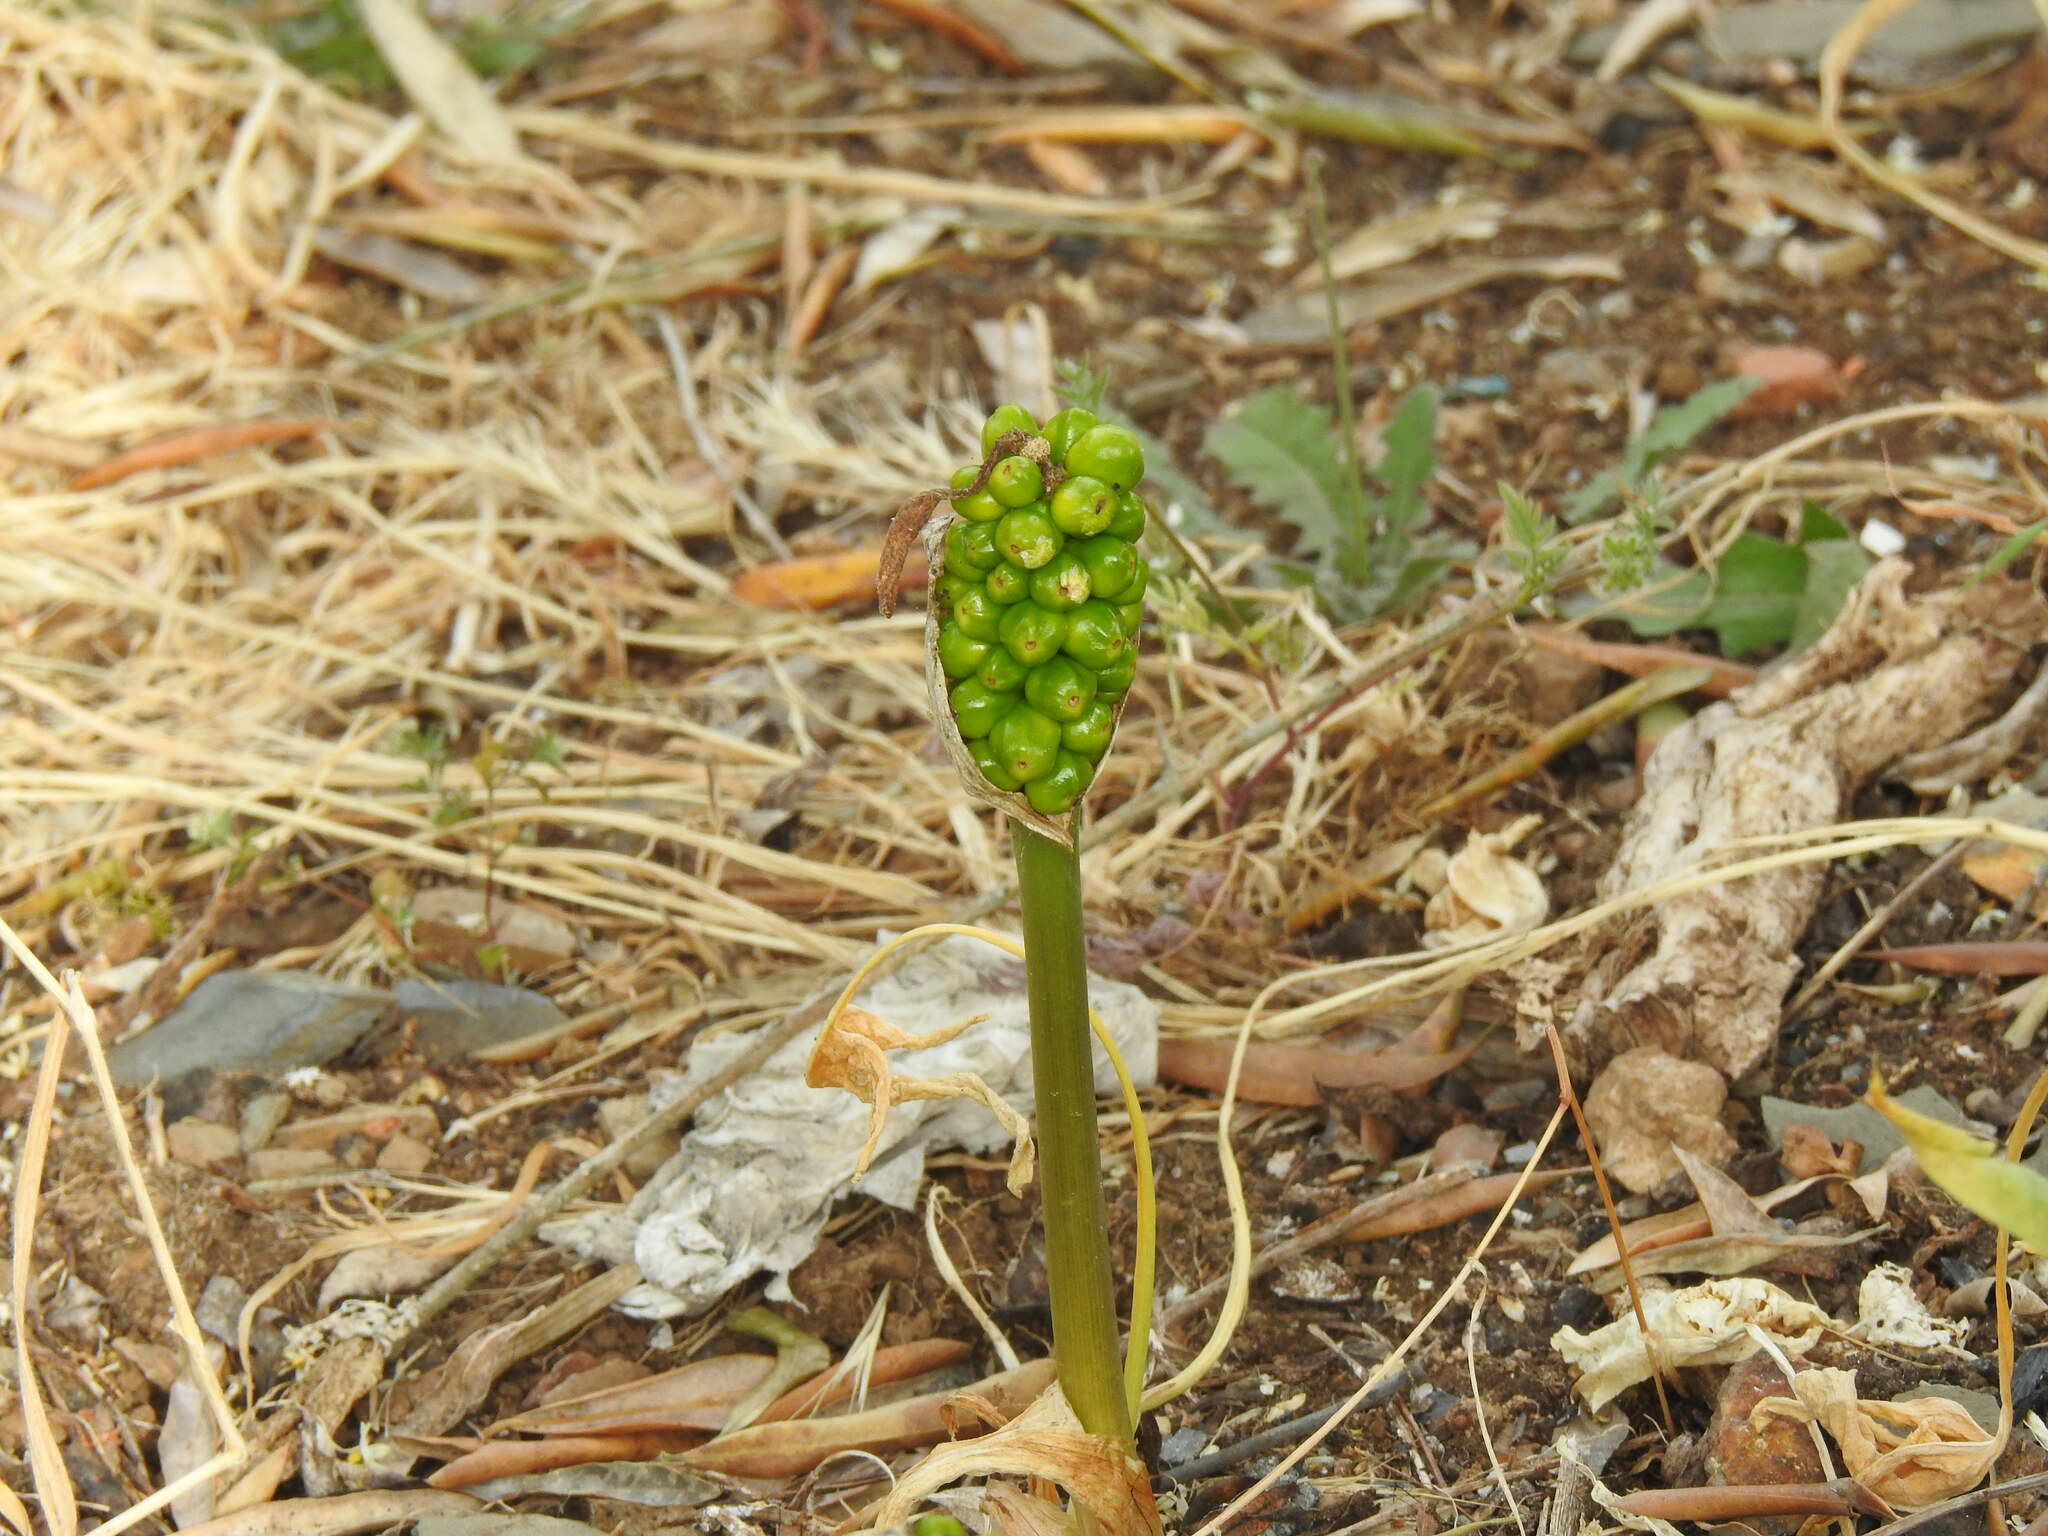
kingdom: Plantae
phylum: Tracheophyta
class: Liliopsida
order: Alismatales
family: Araceae
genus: Arum
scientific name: Arum italicum
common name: Italian lords-and-ladies
